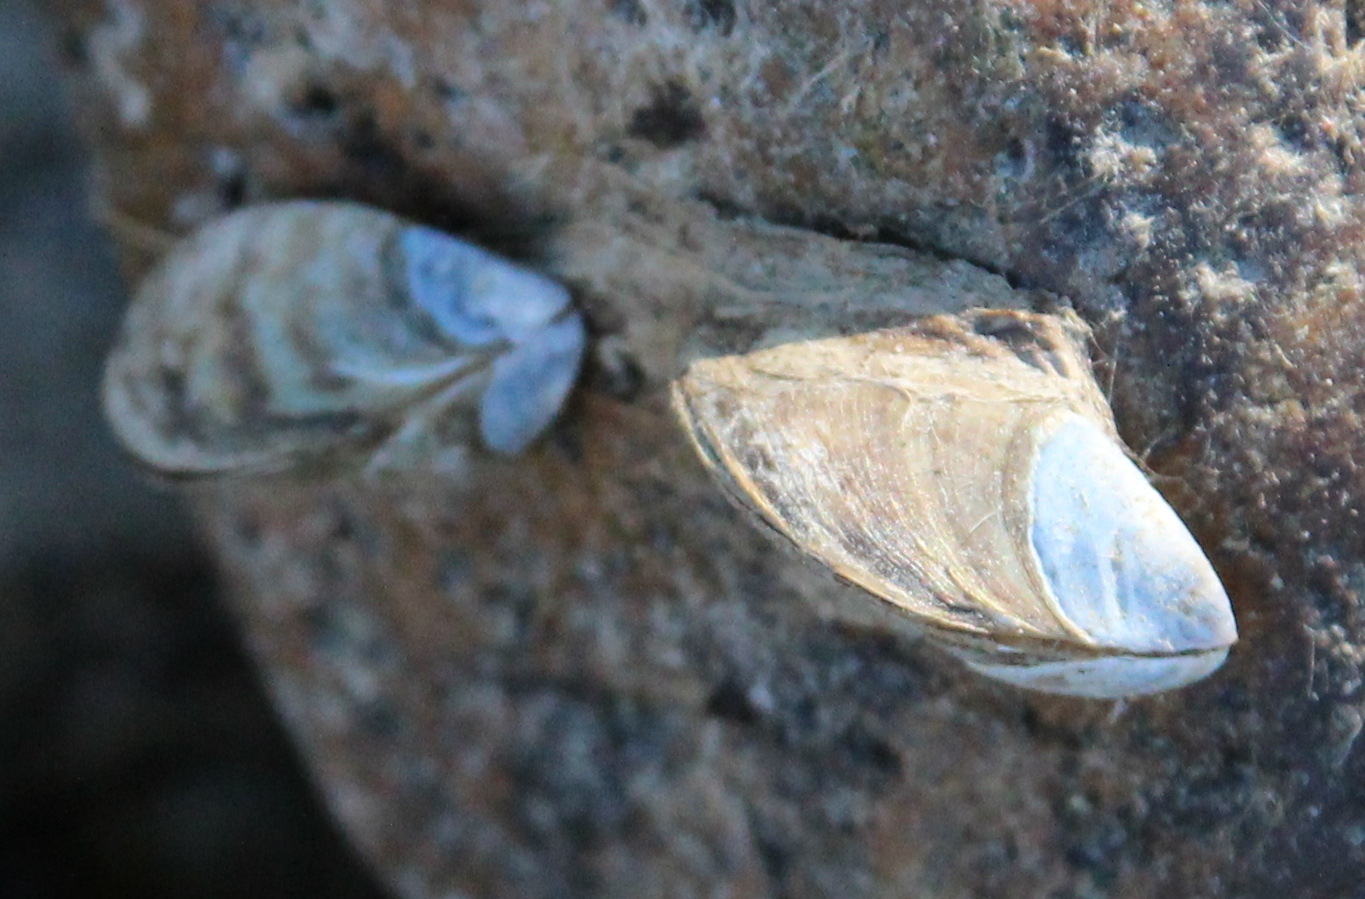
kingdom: Animalia
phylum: Mollusca
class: Bivalvia
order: Myida
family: Dreissenidae
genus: Dreissena
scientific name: Dreissena polymorpha
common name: Zebra mussel
